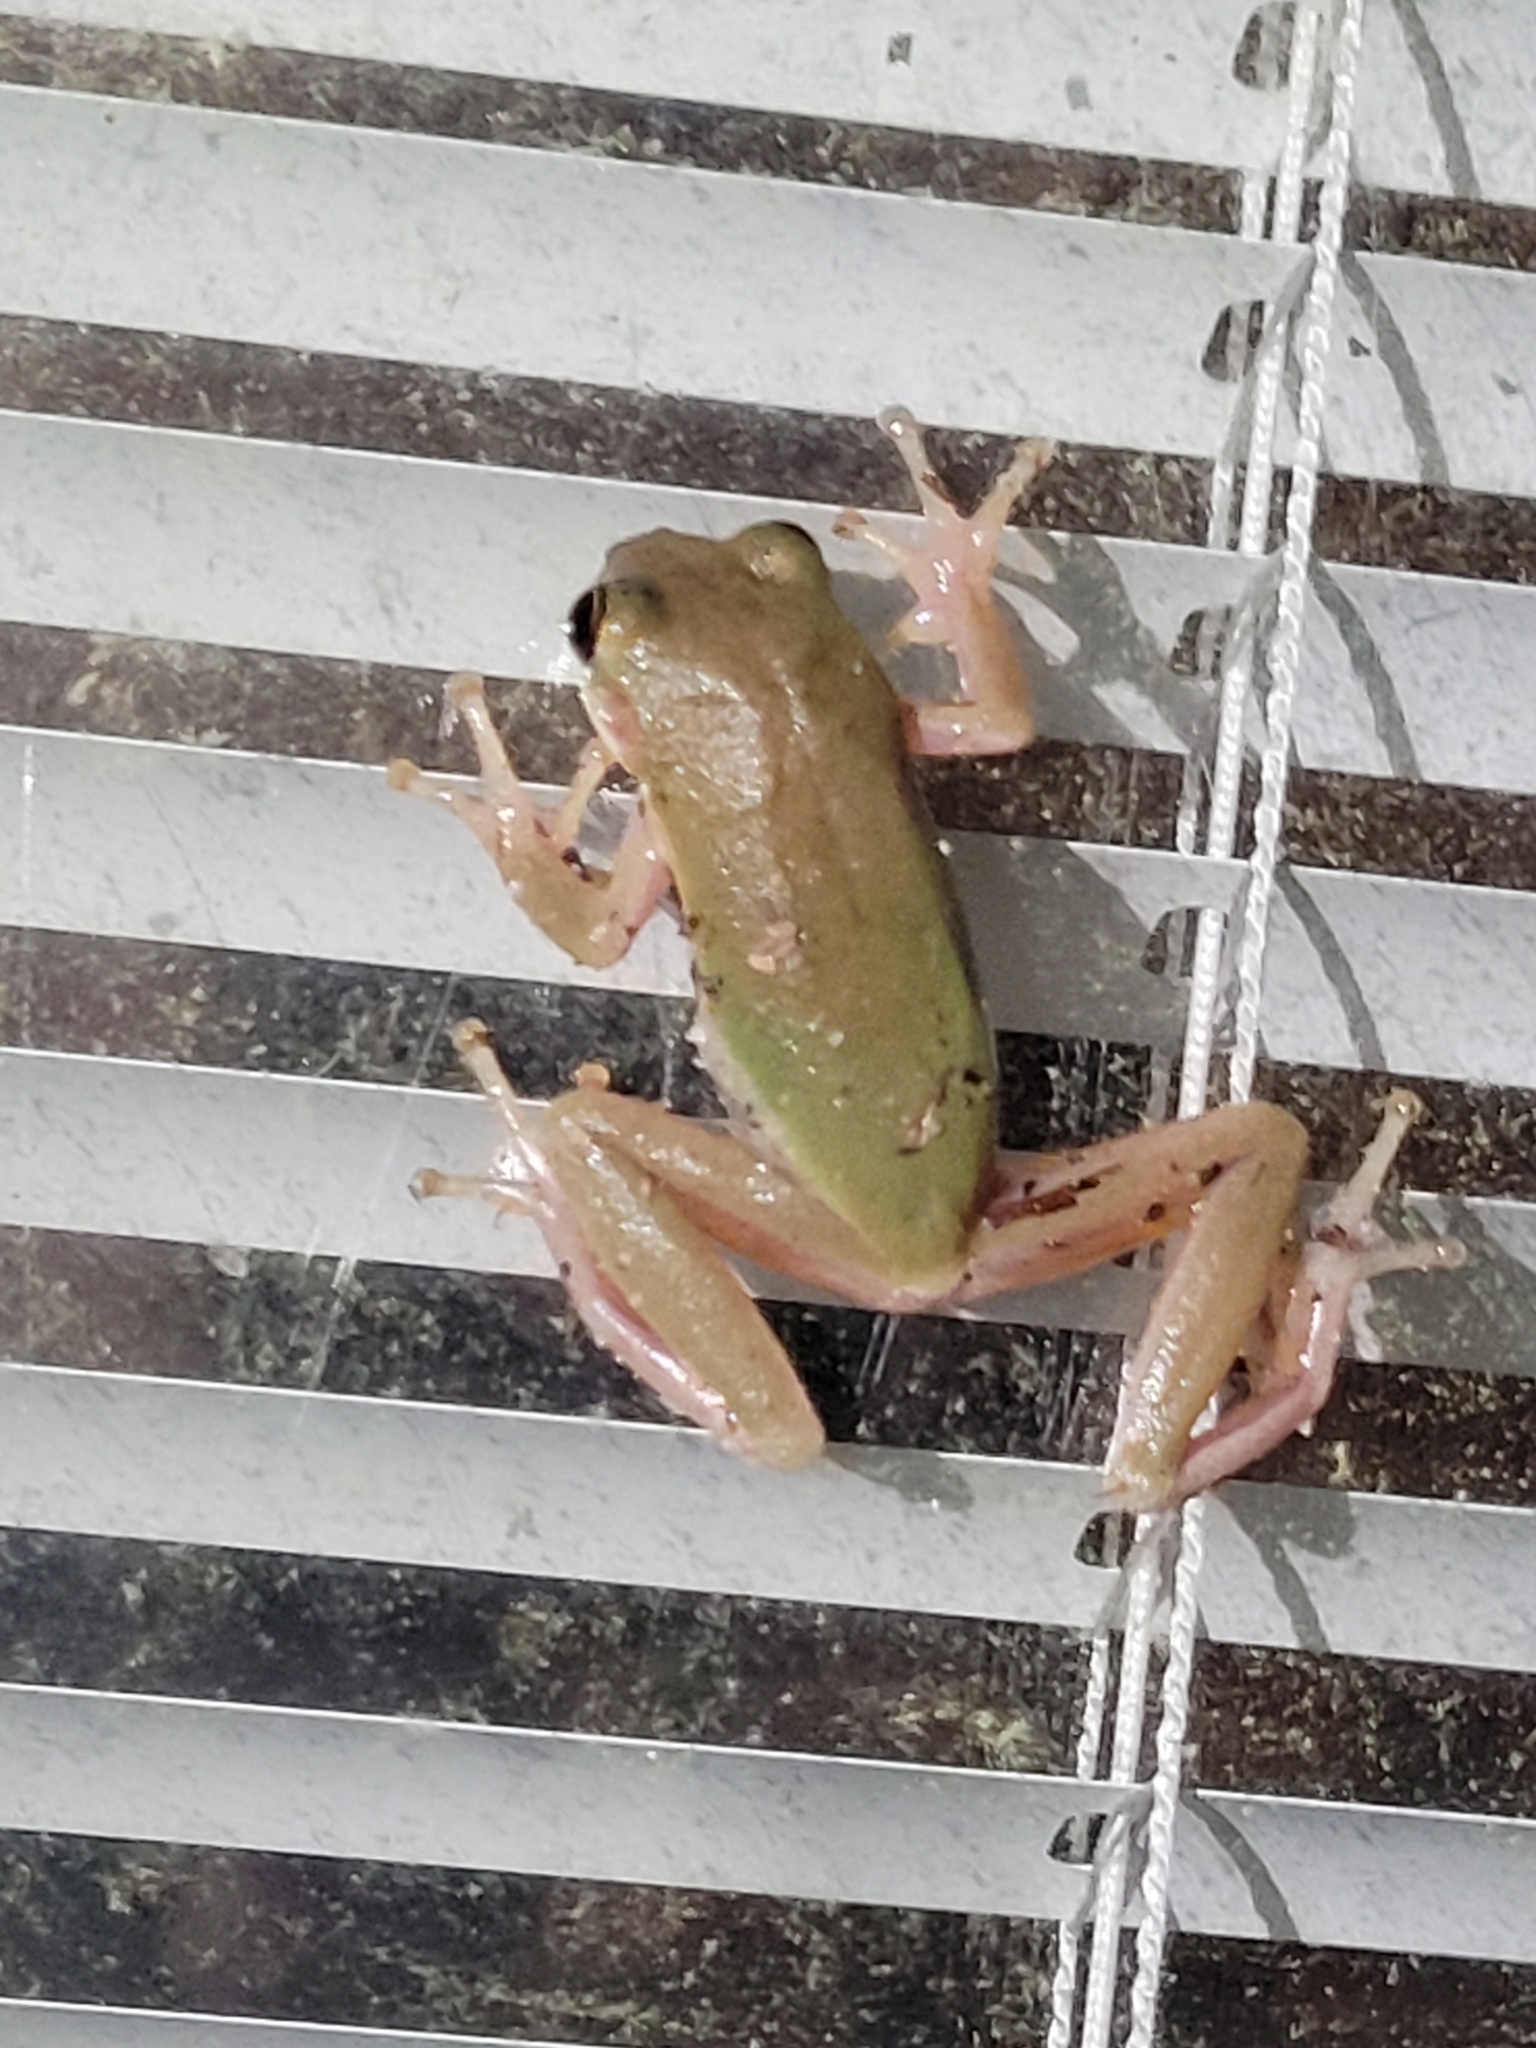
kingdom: Animalia
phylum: Chordata
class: Amphibia
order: Anura
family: Hylidae
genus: Dryophytes
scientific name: Dryophytes squirellus
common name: Squirrel treefrog
